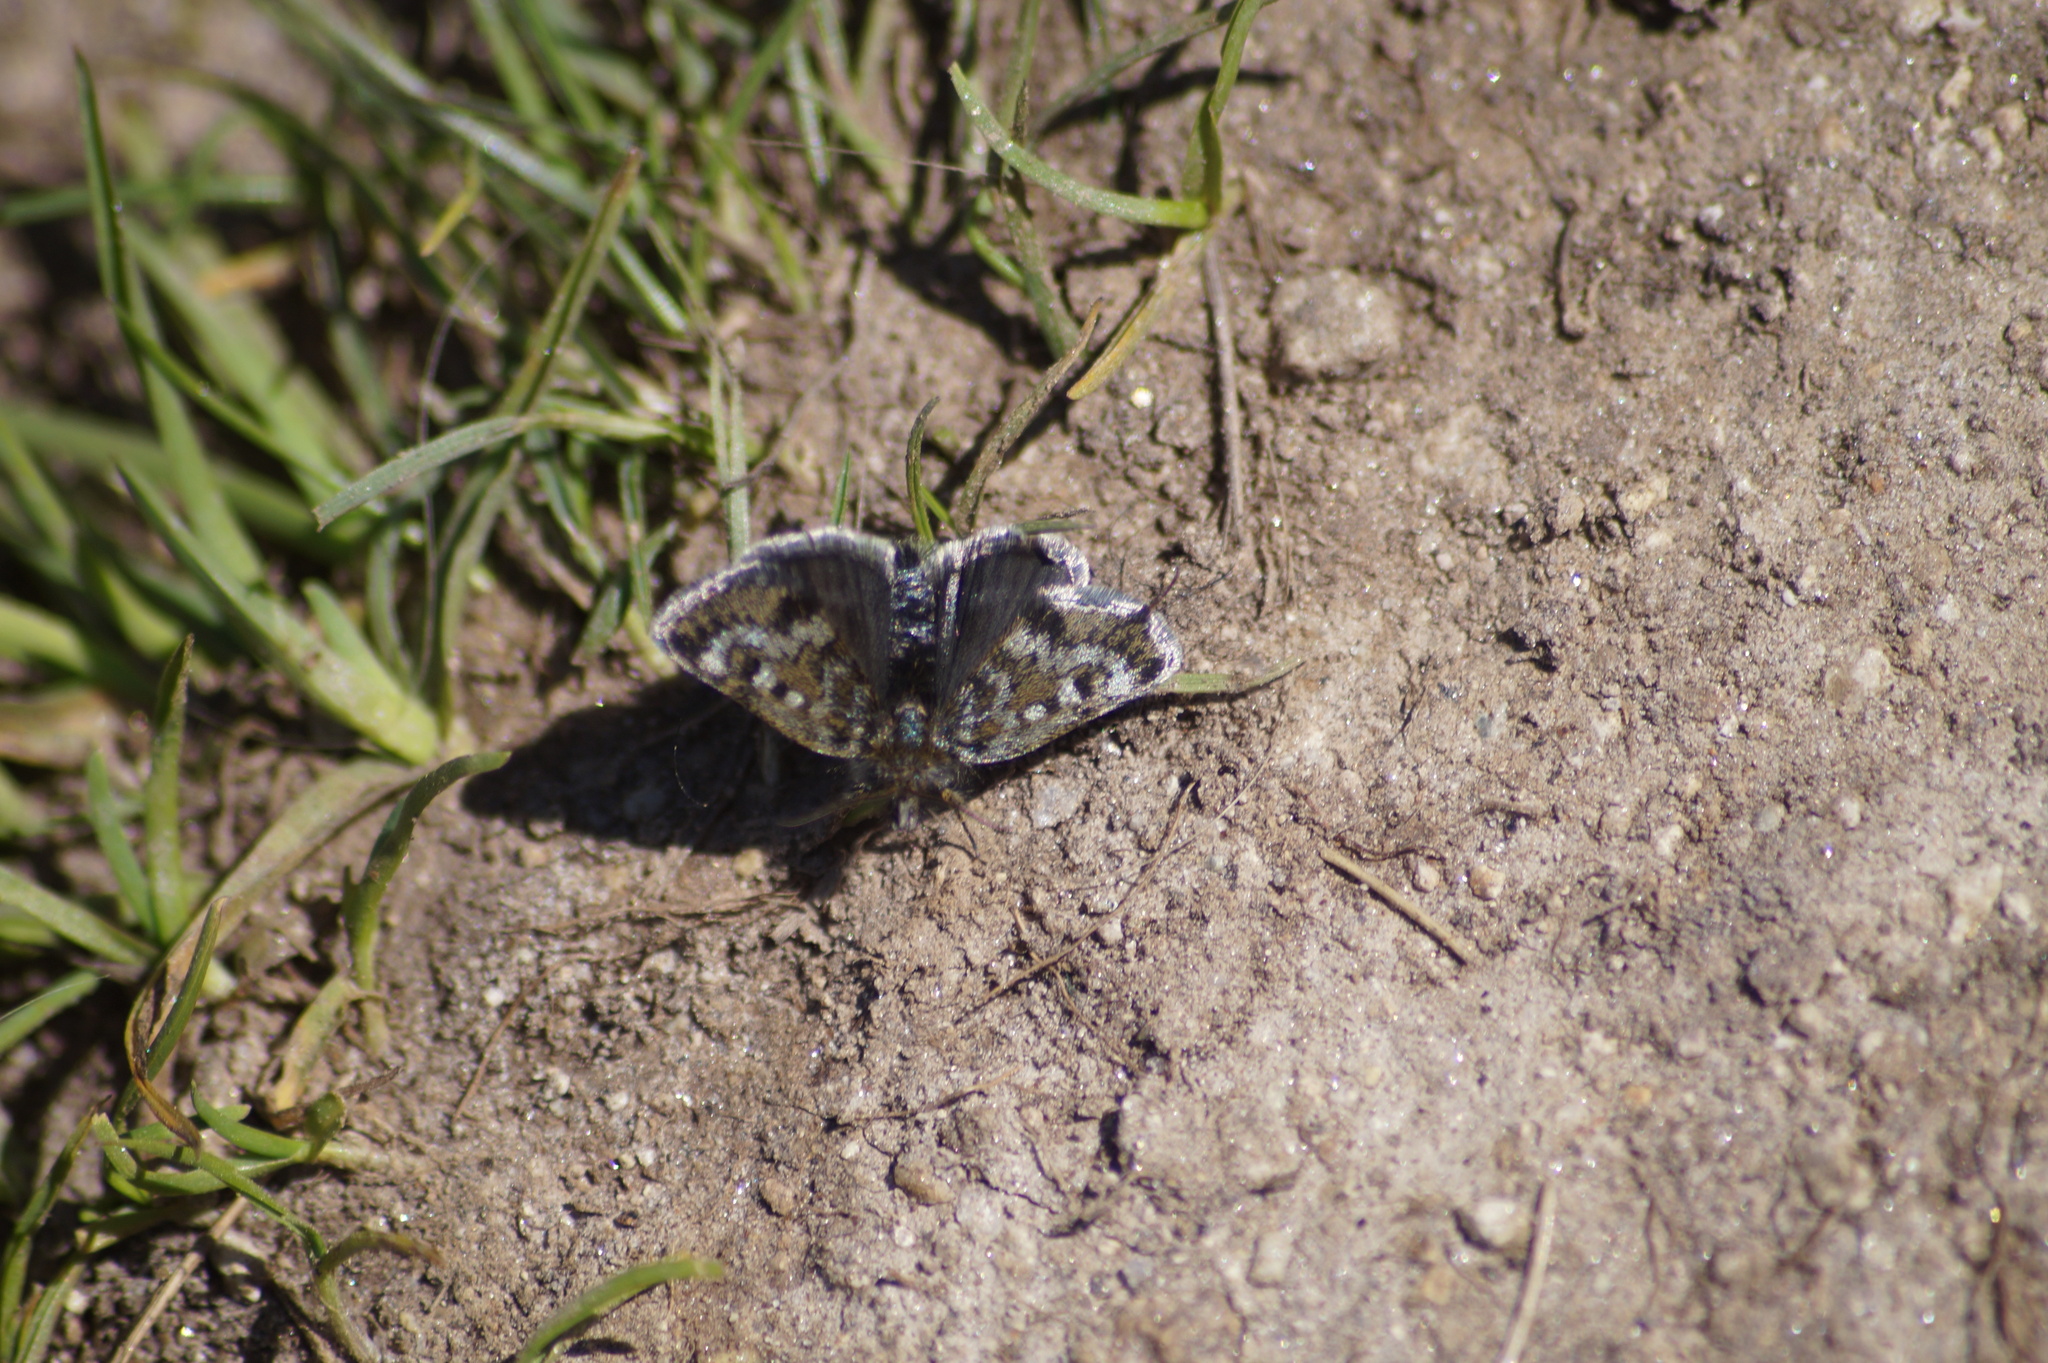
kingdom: Animalia
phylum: Arthropoda
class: Insecta
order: Lepidoptera
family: Crambidae
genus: Metaxmeste
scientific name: Metaxmeste phrygialis
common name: Black mountain pearl
